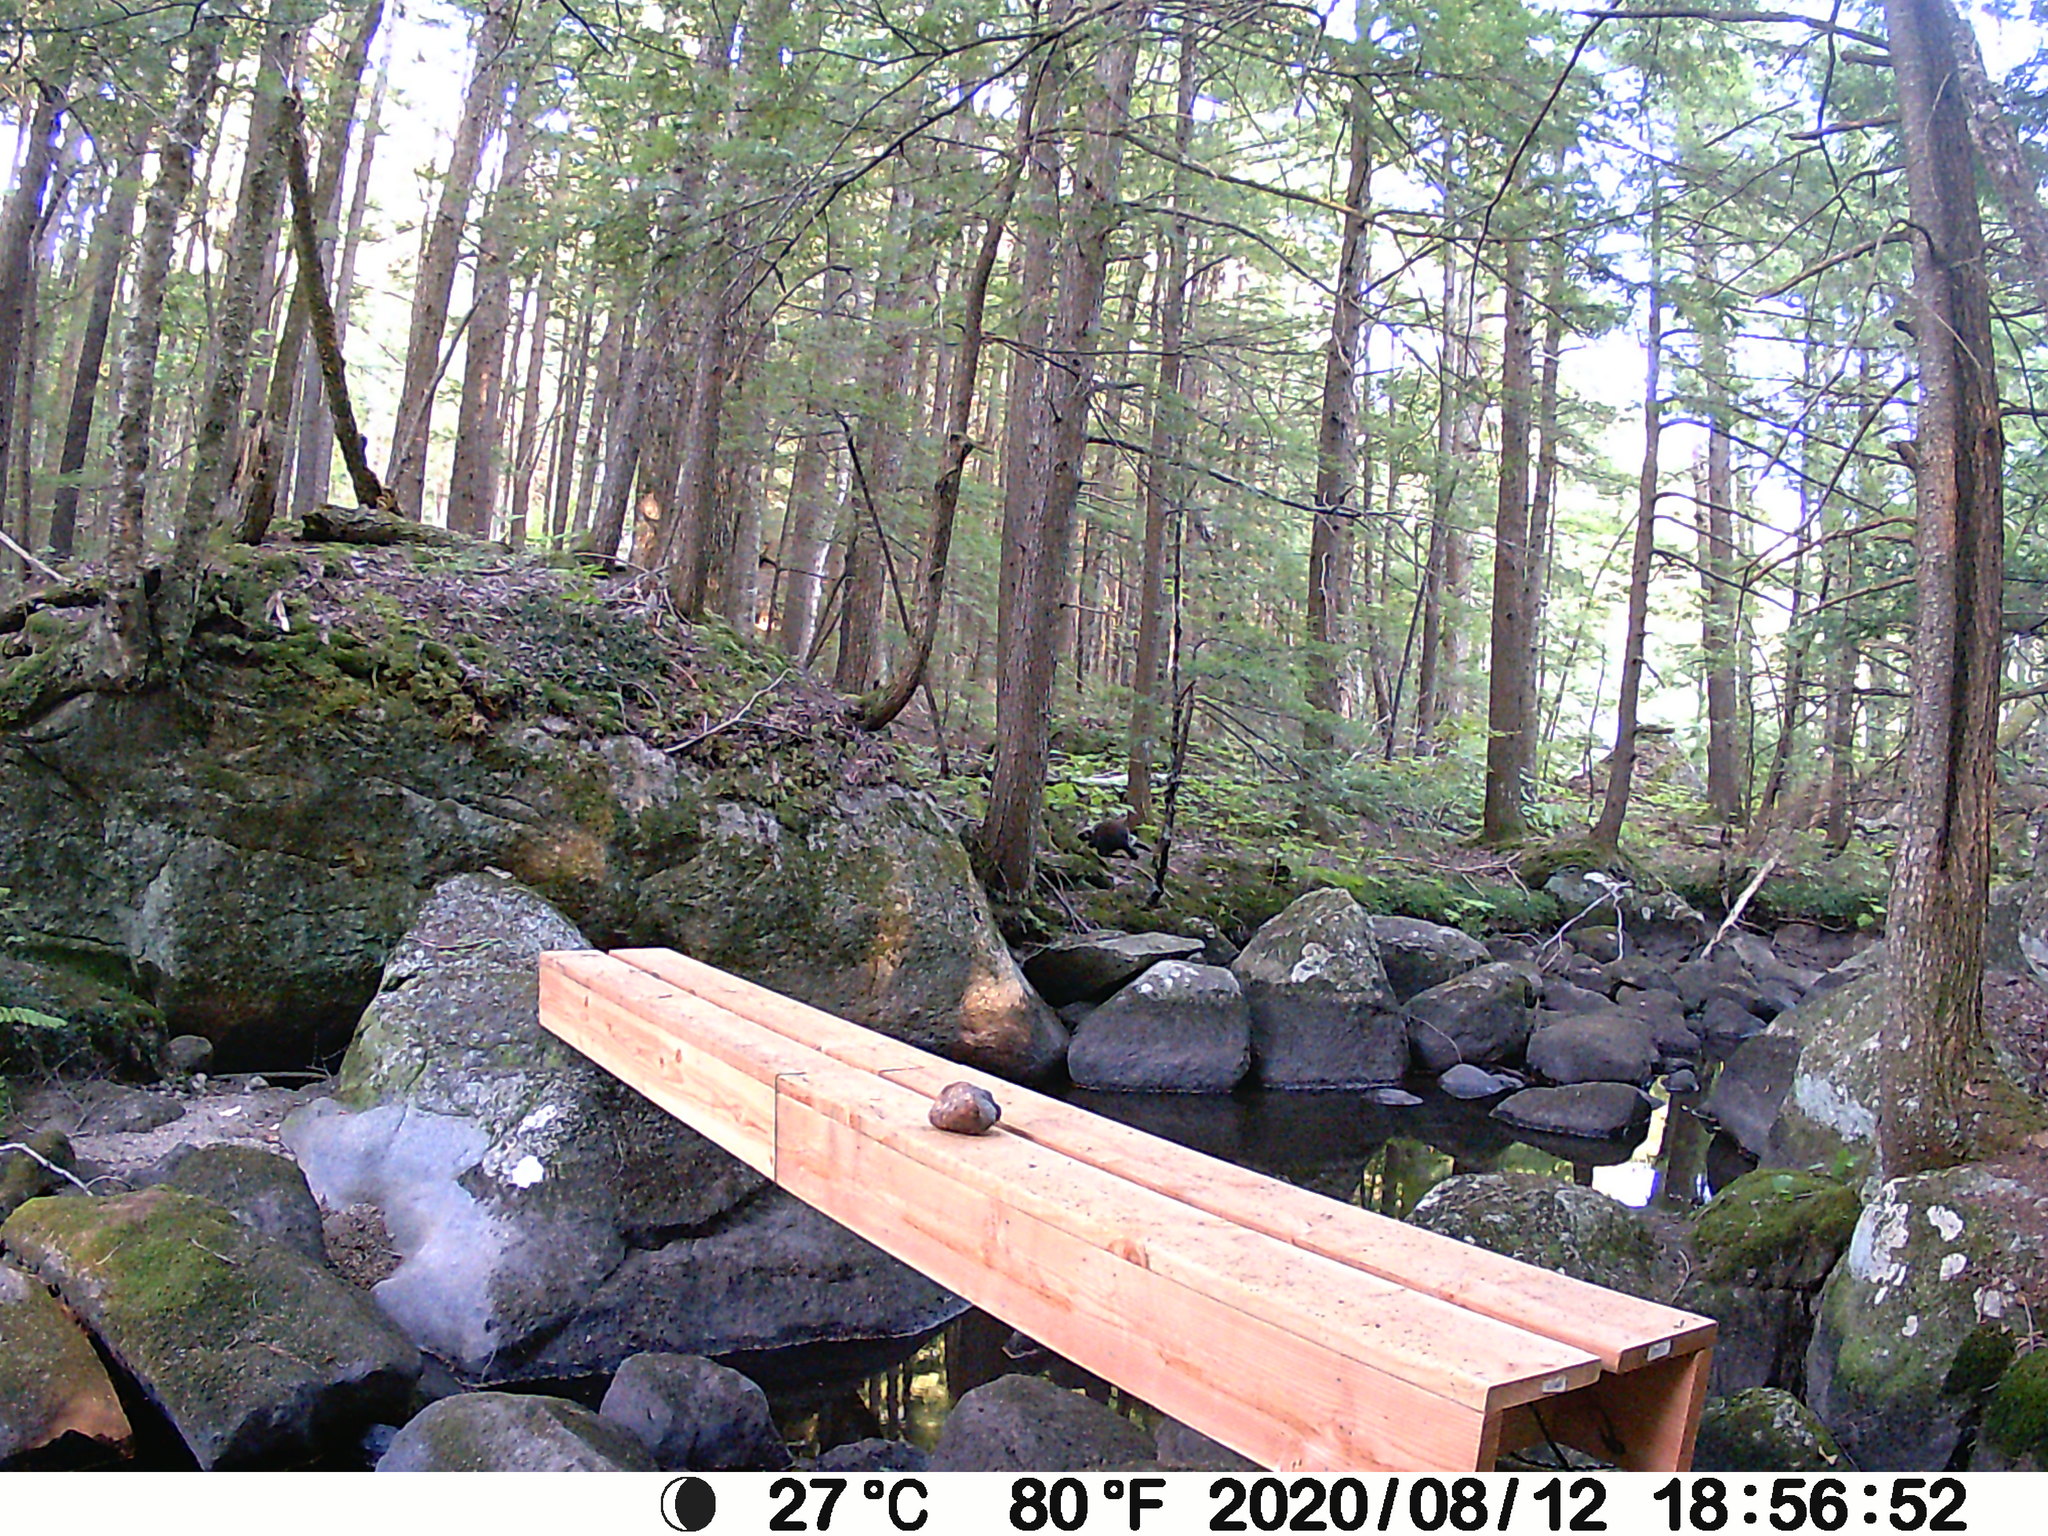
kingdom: Animalia
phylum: Chordata
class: Mammalia
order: Rodentia
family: Erethizontidae
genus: Erethizon
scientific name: Erethizon dorsatus
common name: North american porcupine
